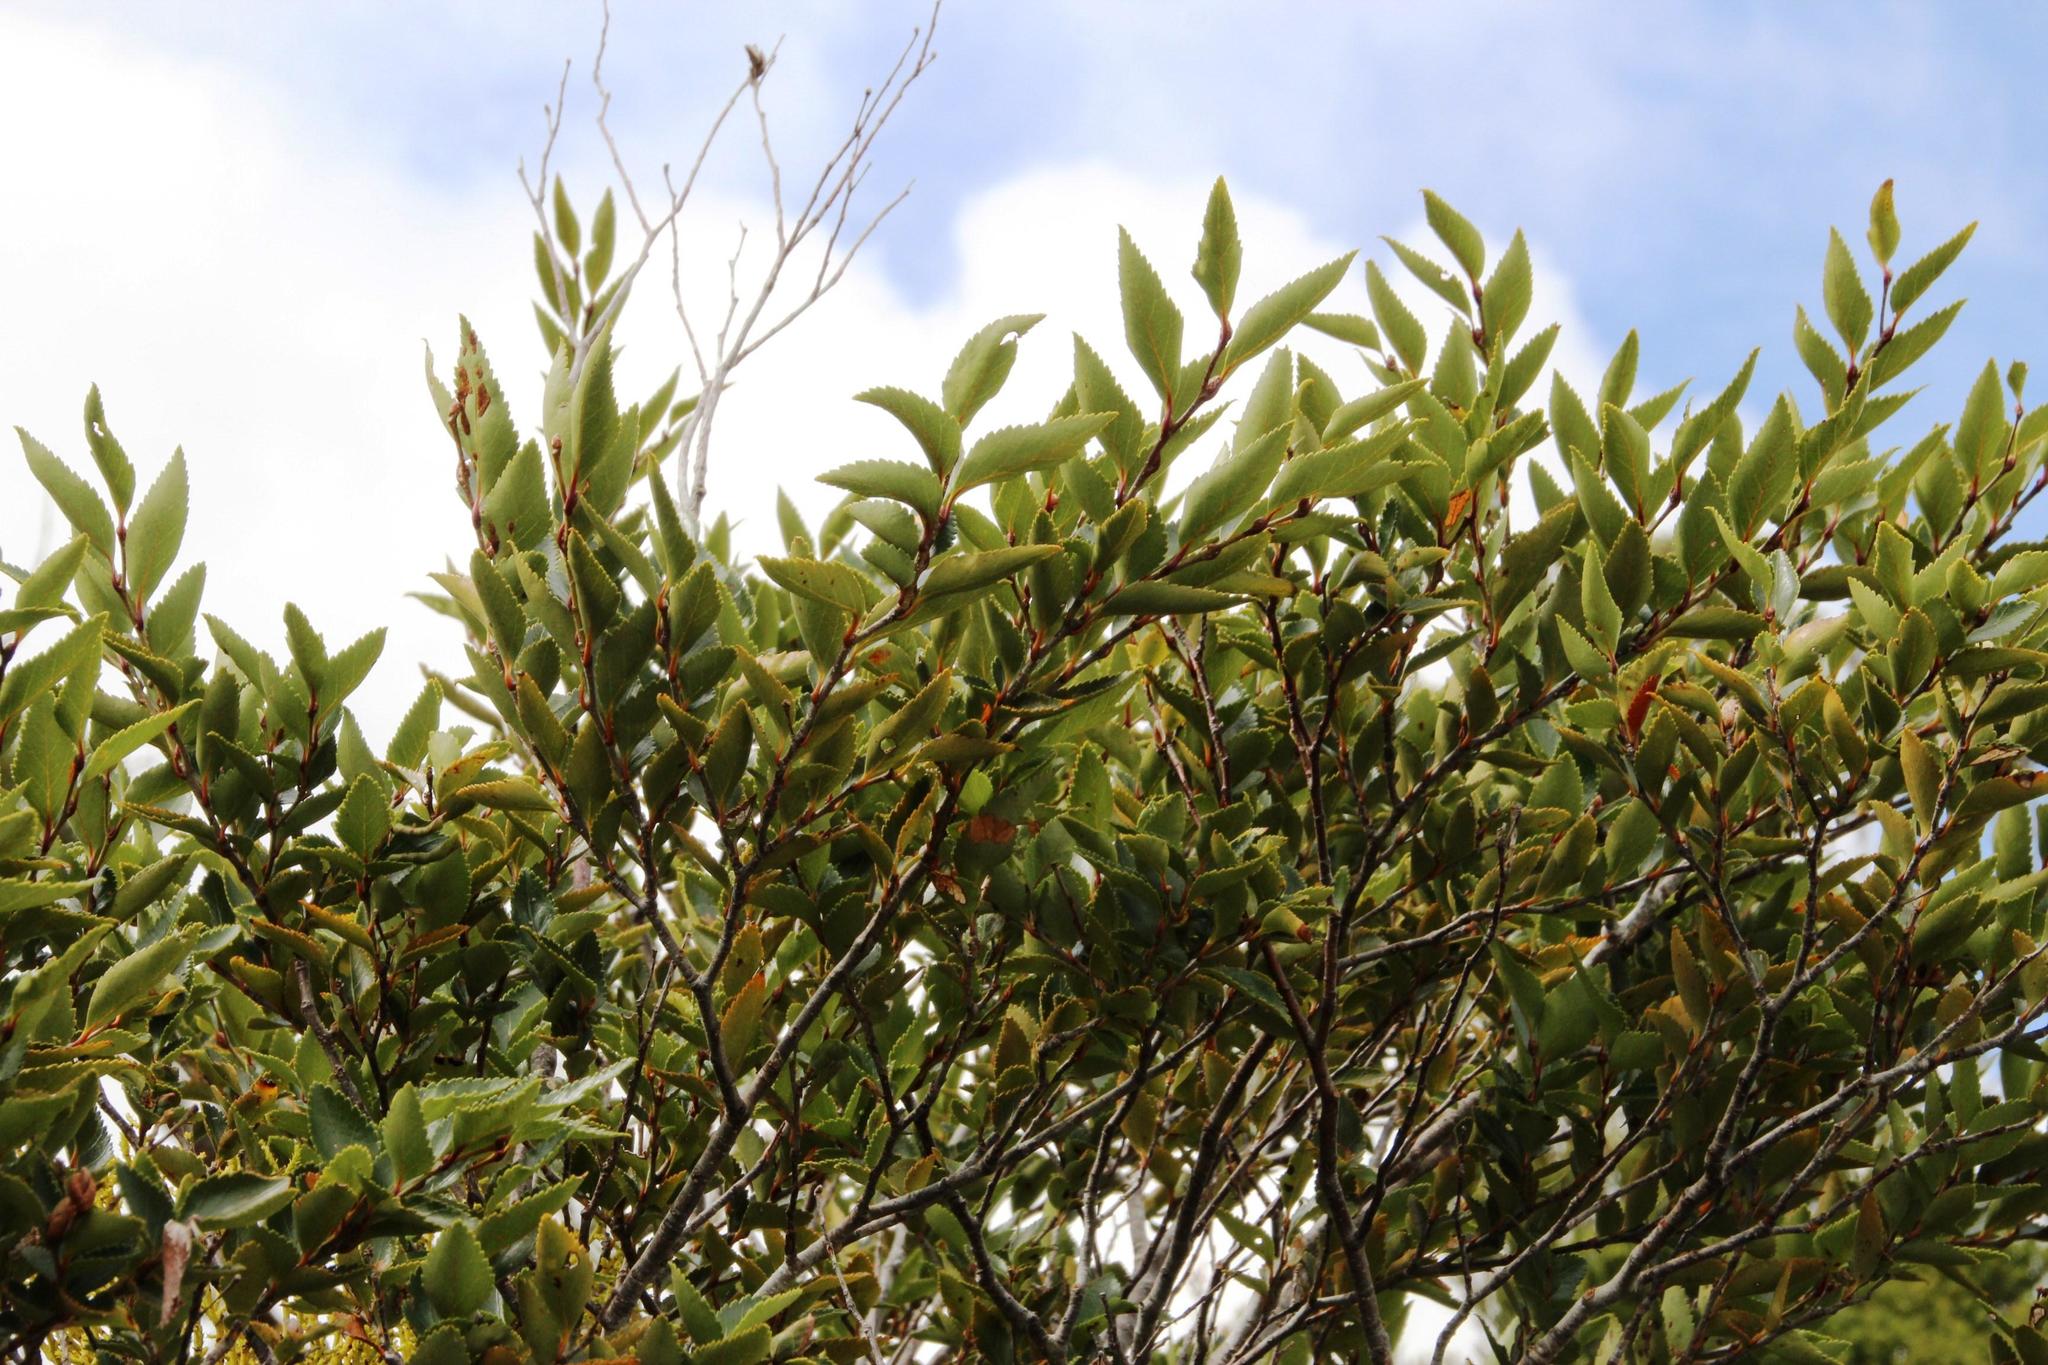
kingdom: Plantae
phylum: Tracheophyta
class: Magnoliopsida
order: Fagales
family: Nothofagaceae
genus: Nothofagus
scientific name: Nothofagus nitida
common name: Chiloé's coigue
